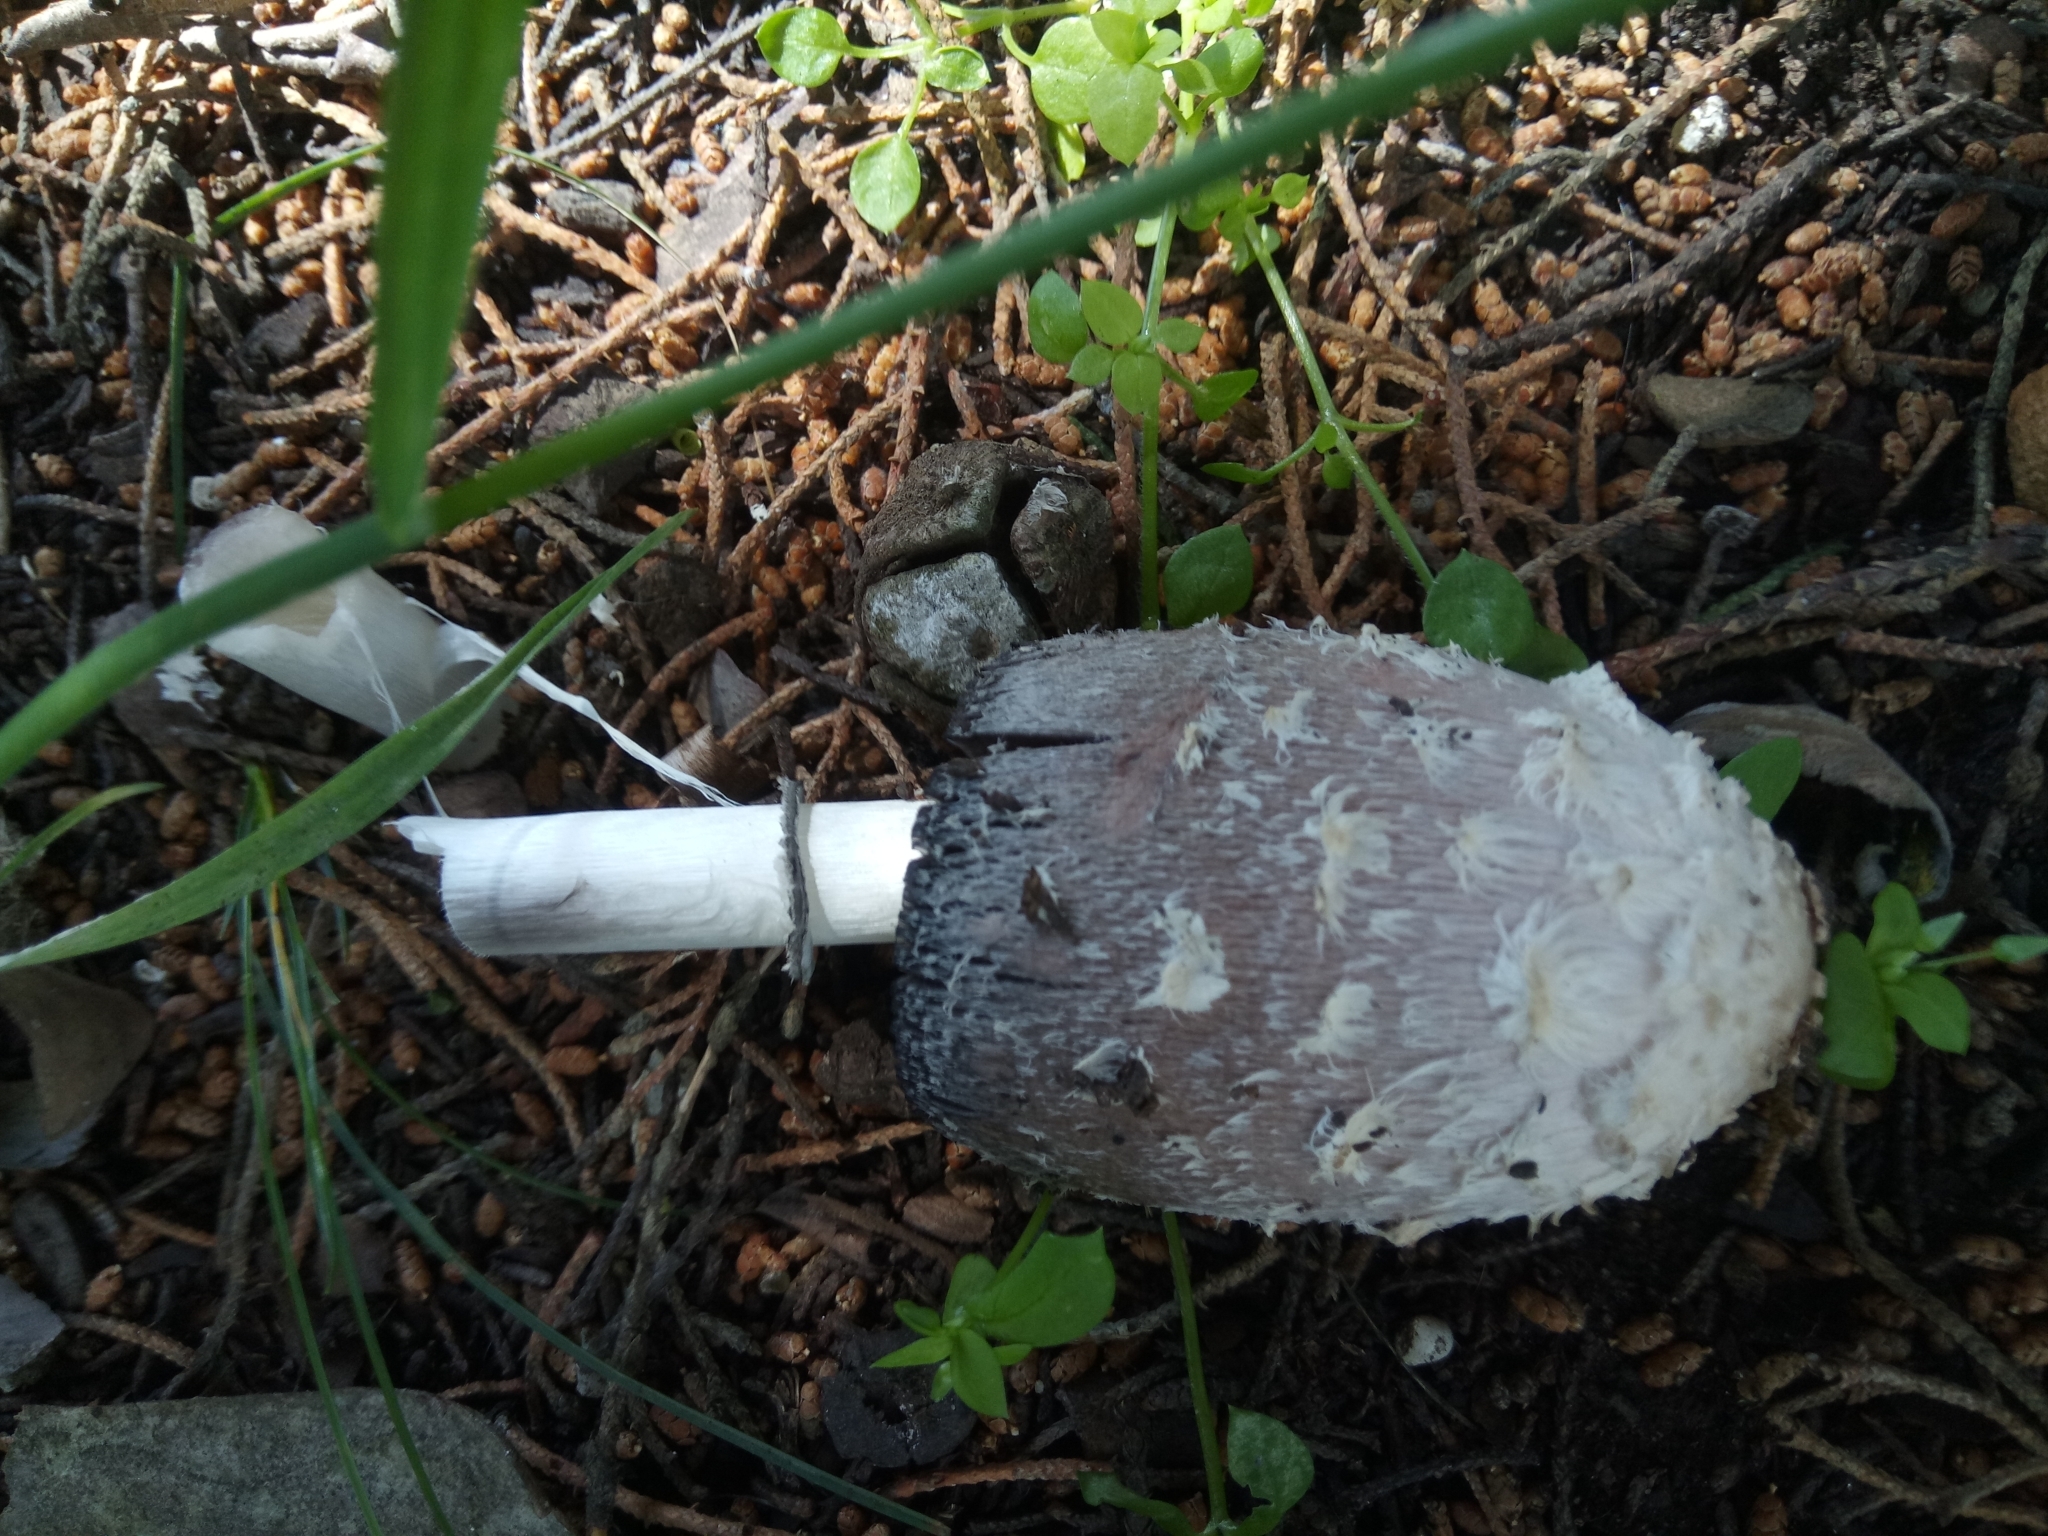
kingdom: Fungi
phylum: Basidiomycota
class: Agaricomycetes
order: Agaricales
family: Agaricaceae
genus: Coprinus
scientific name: Coprinus comatus
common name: Lawyer's wig
